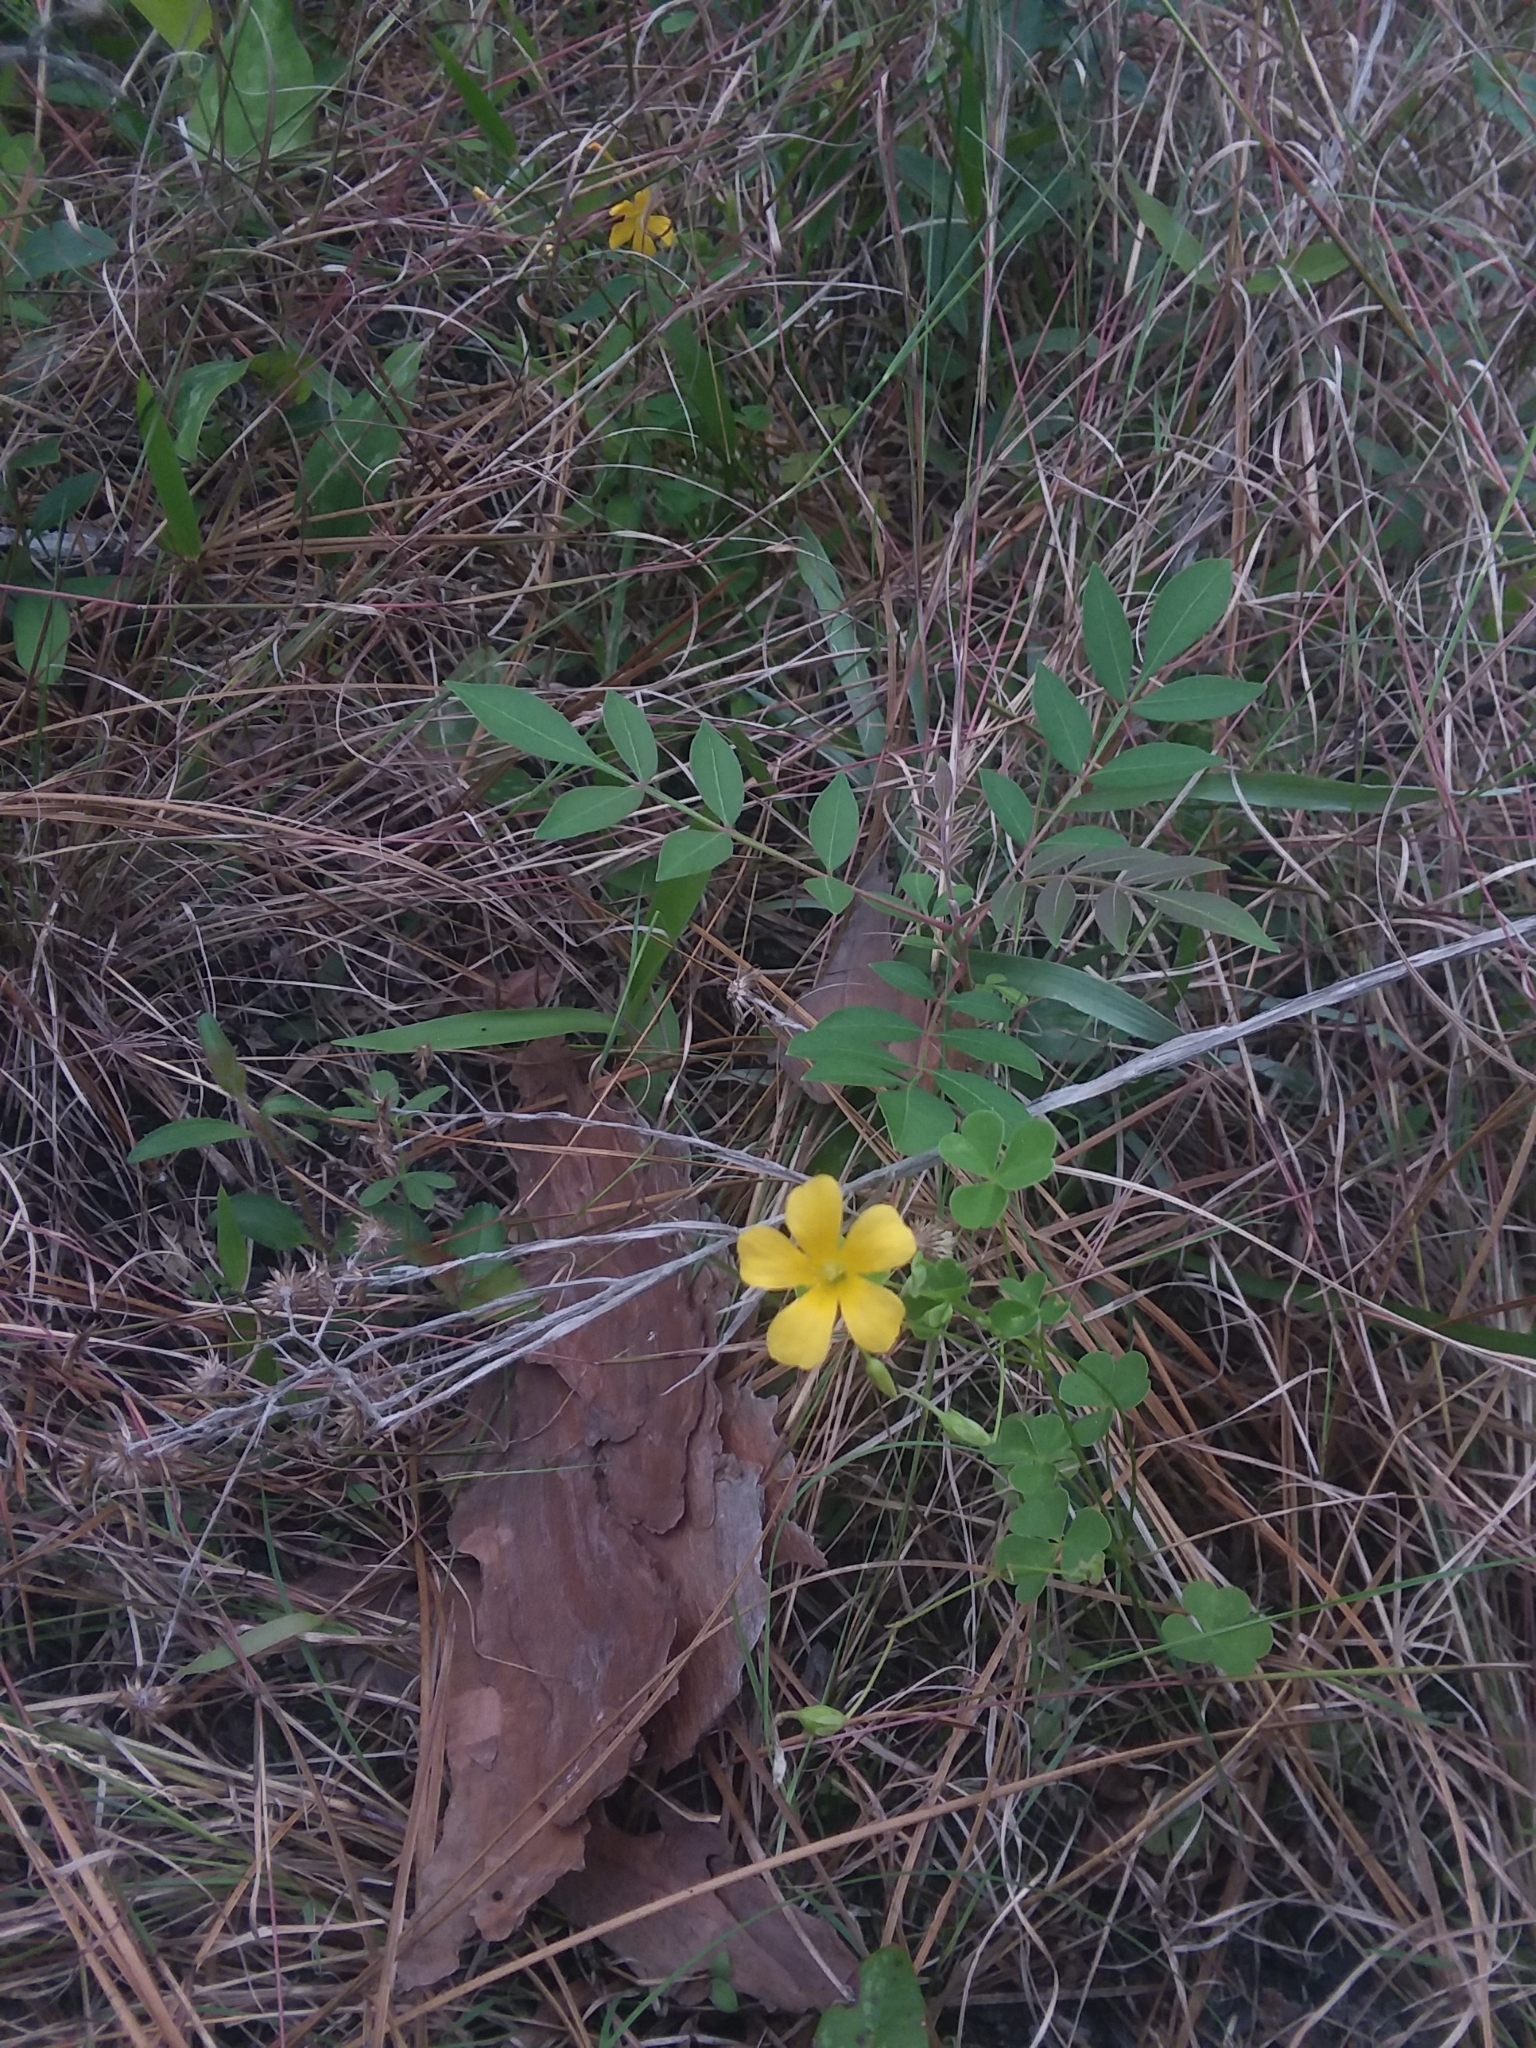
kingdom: Plantae
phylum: Tracheophyta
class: Magnoliopsida
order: Oxalidales
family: Oxalidaceae
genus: Oxalis
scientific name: Oxalis colorea
